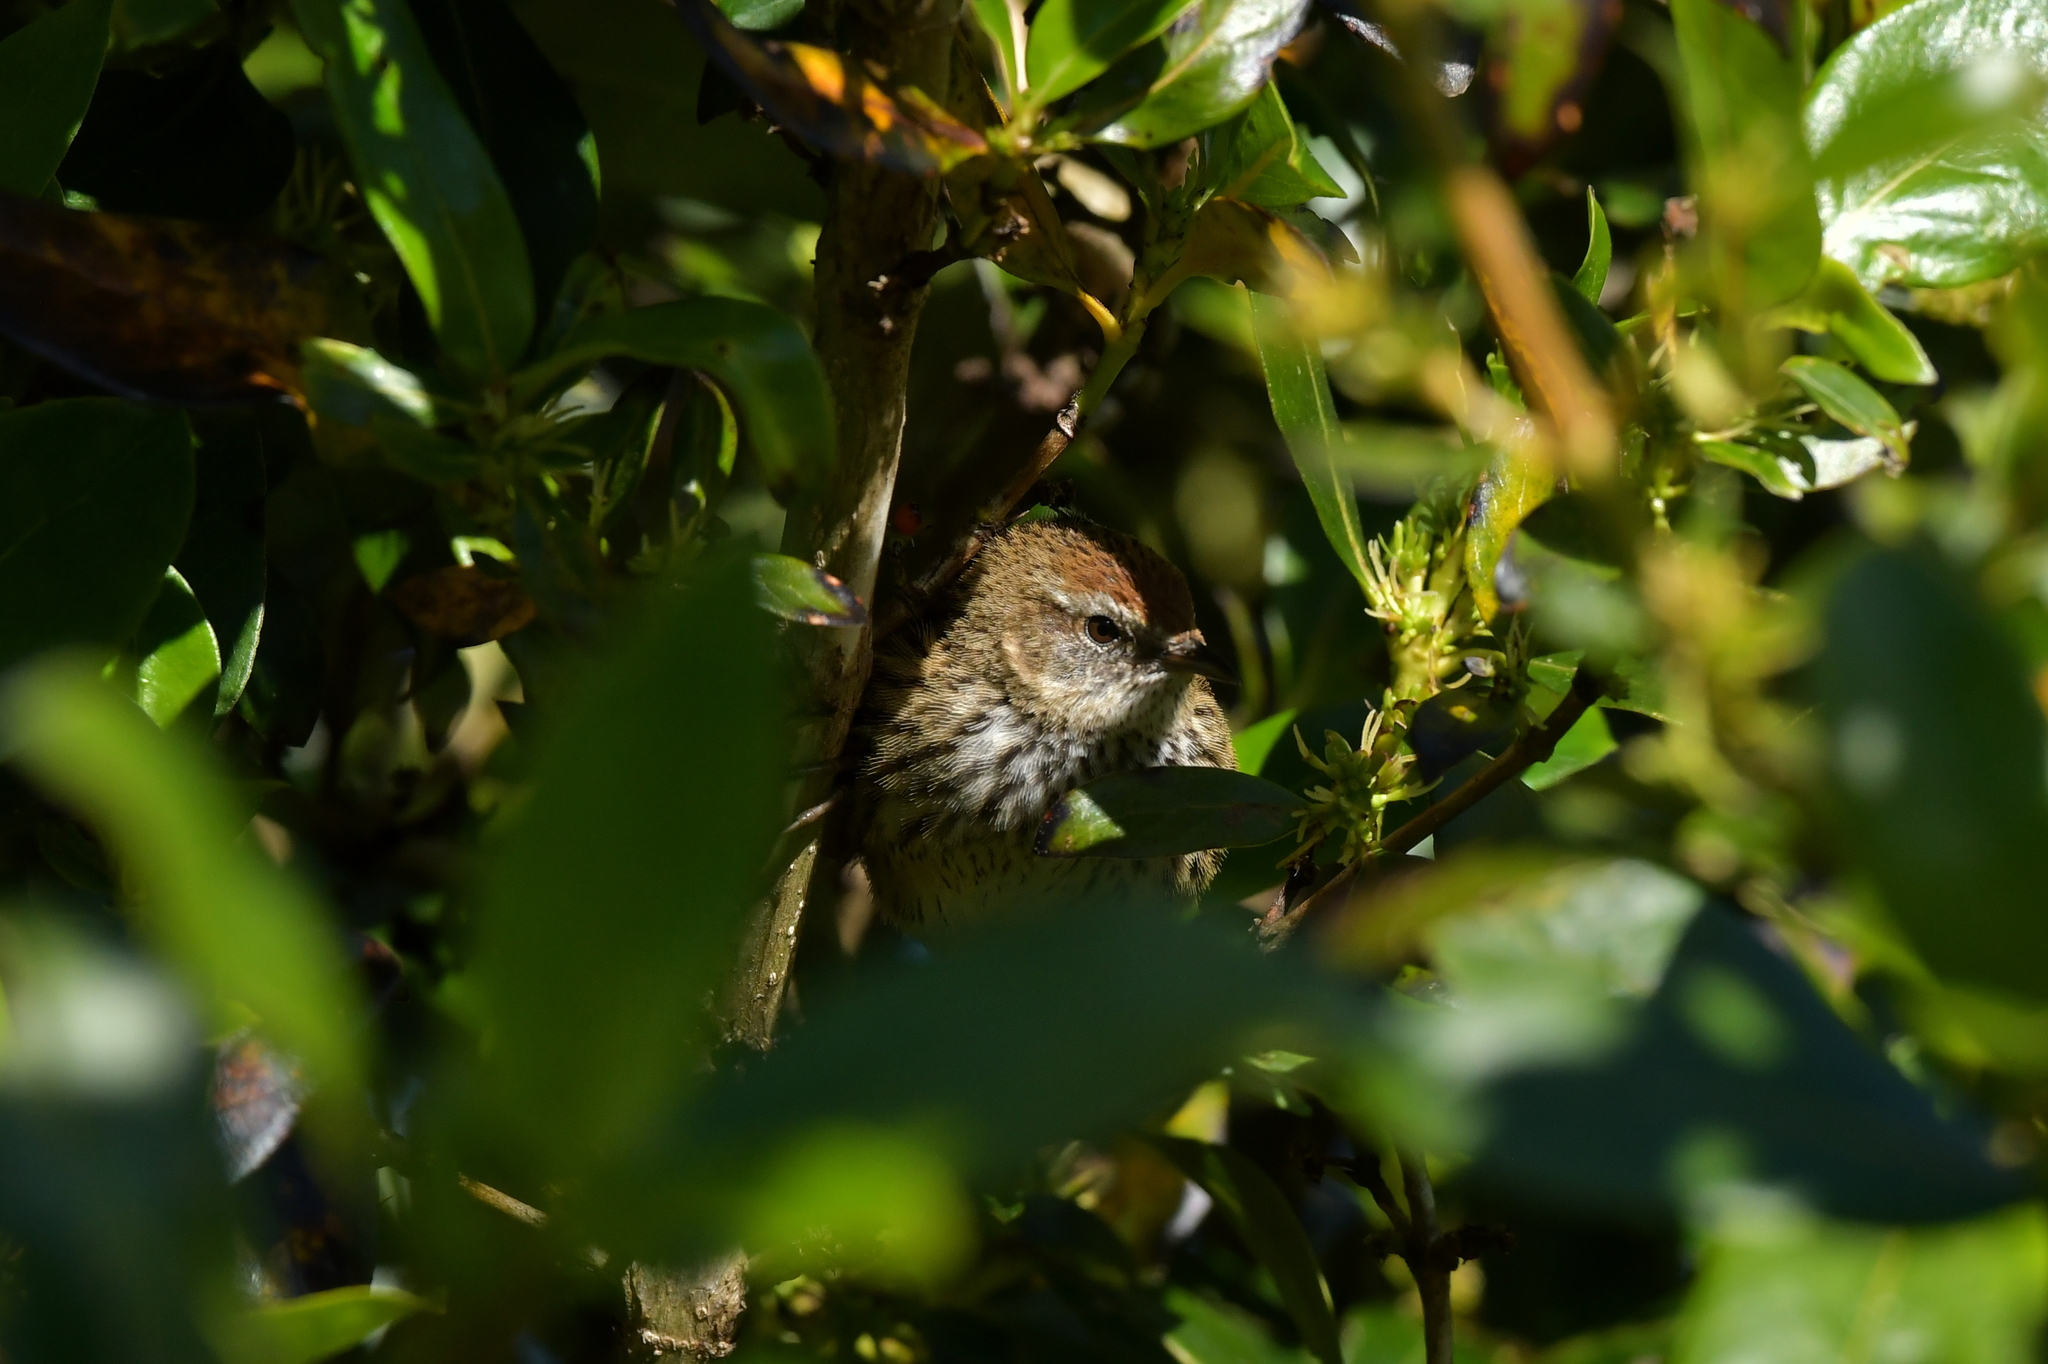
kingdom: Animalia
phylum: Chordata
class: Aves
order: Passeriformes
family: Locustellidae
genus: Megalurus
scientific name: Megalurus punctatus
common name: New zealand fernbird
